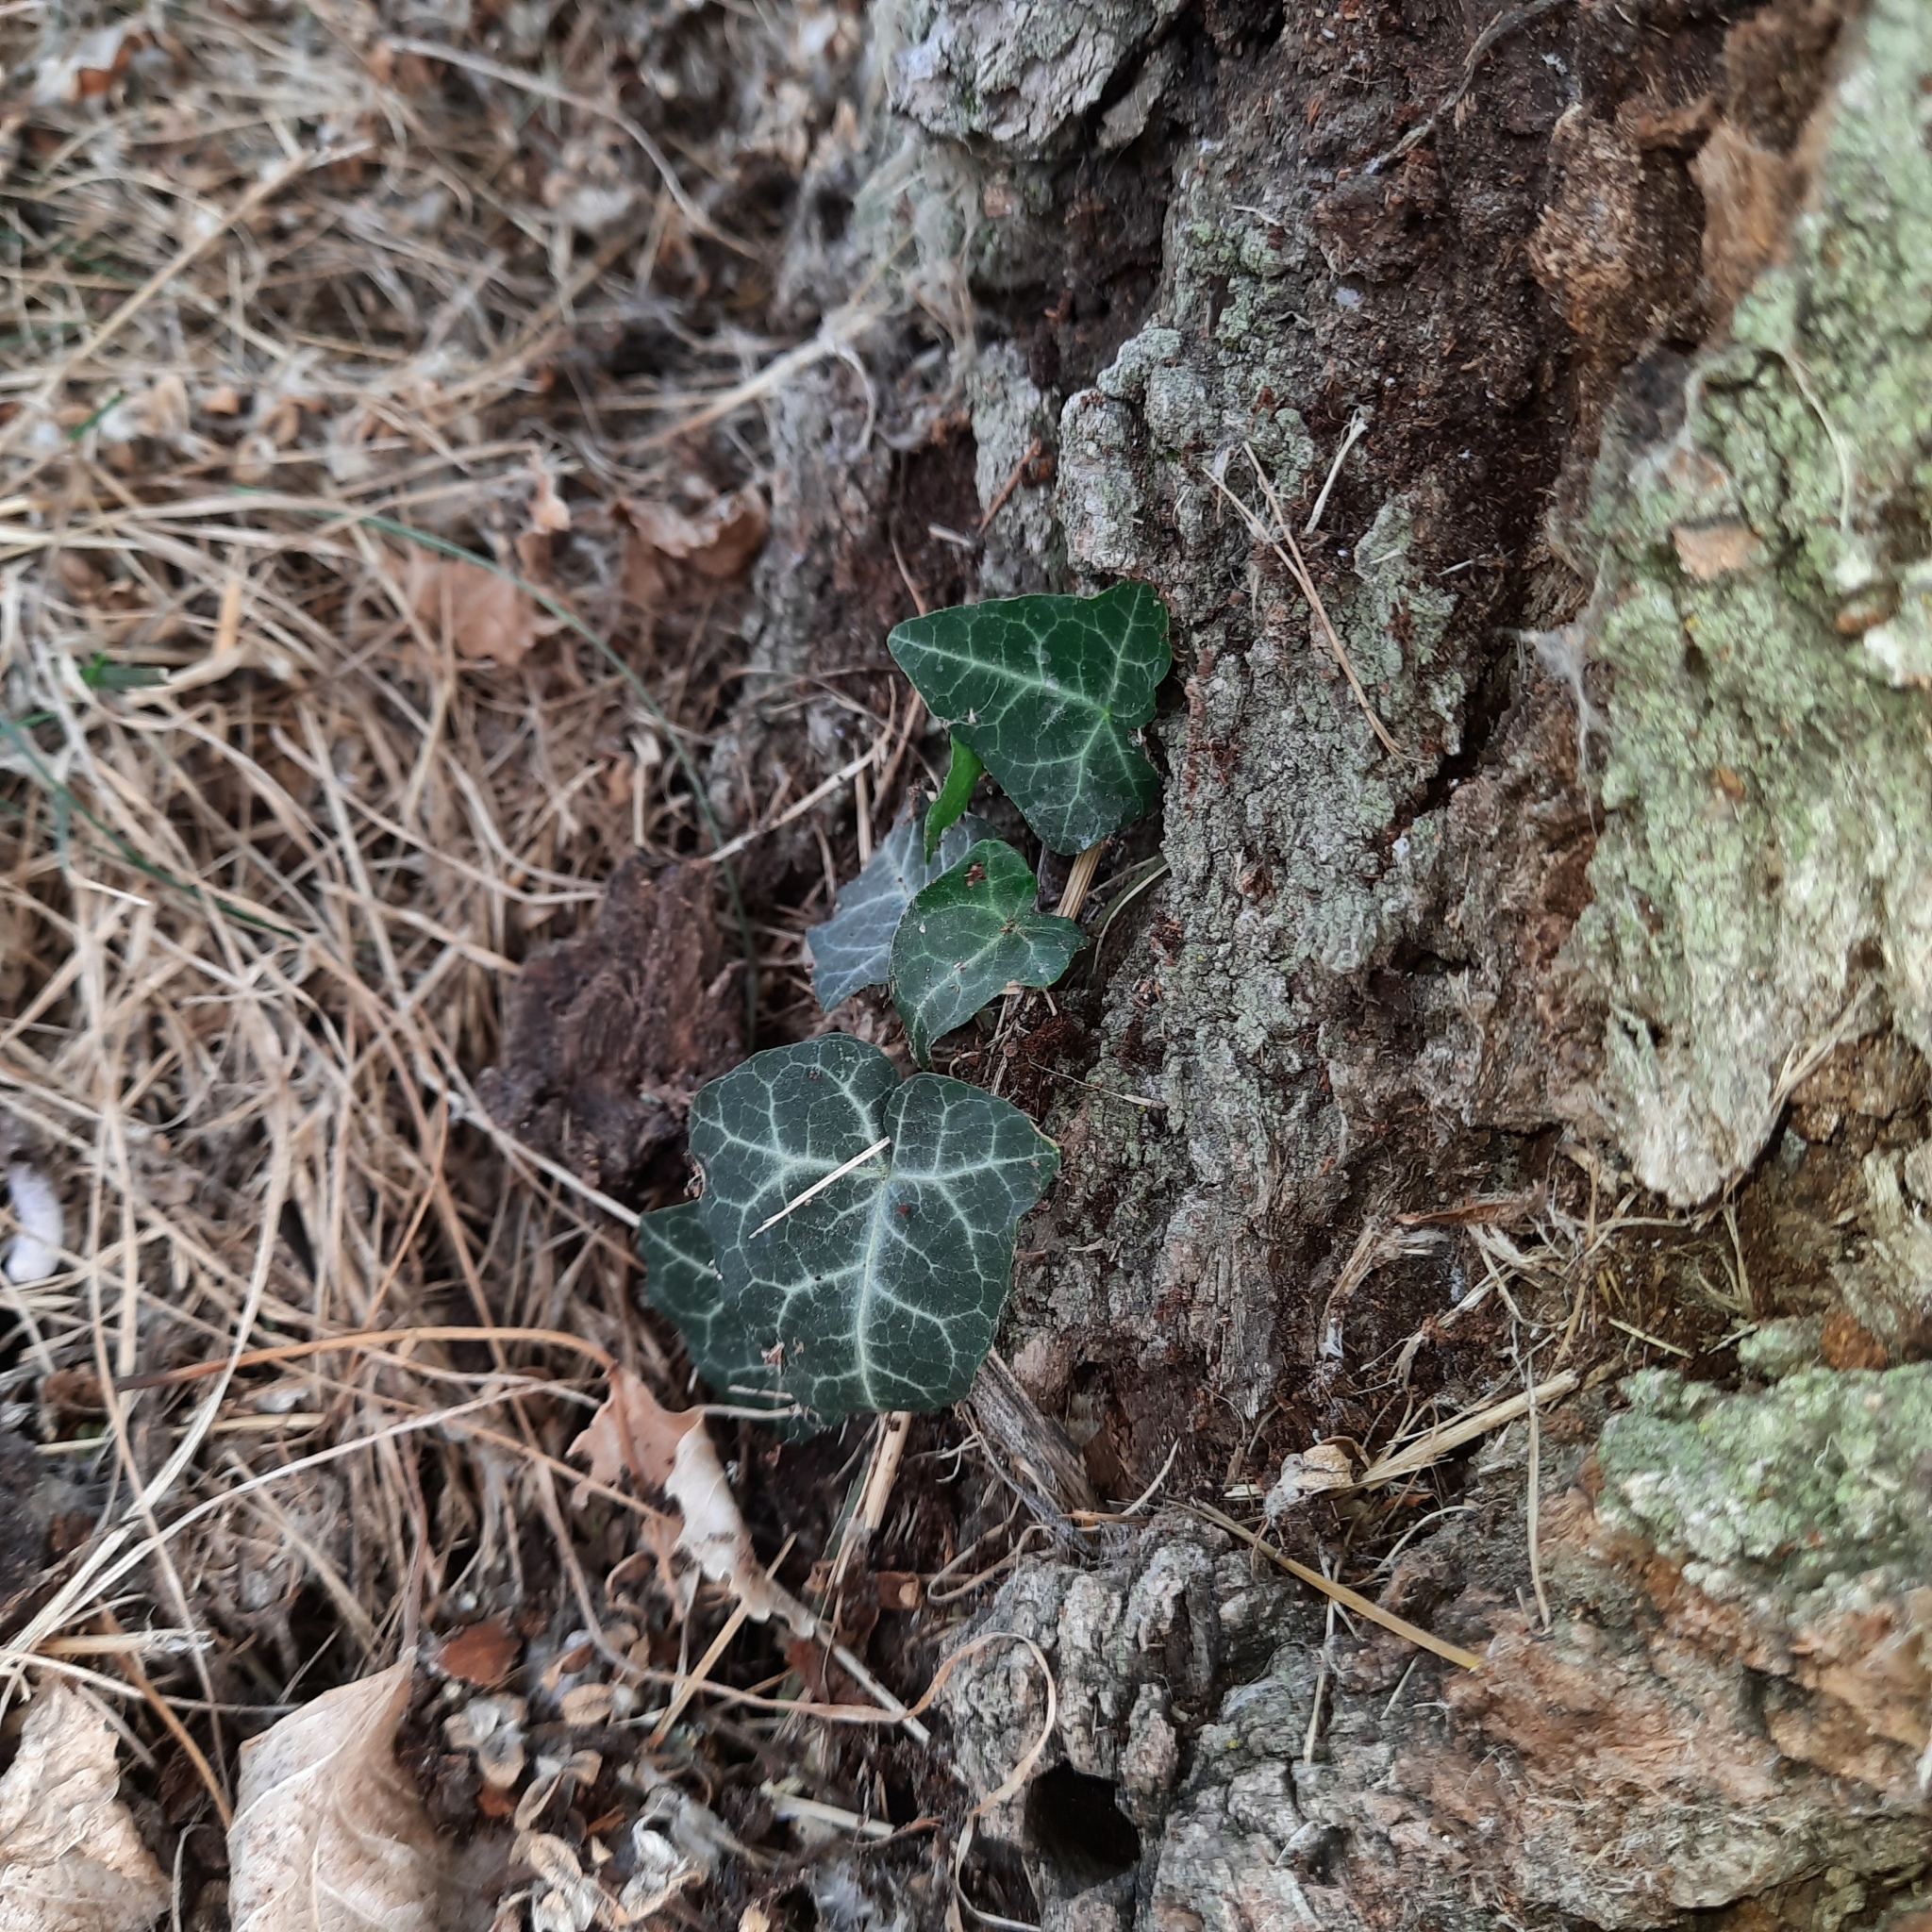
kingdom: Plantae
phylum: Tracheophyta
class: Magnoliopsida
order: Apiales
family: Araliaceae
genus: Hedera
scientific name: Hedera helix
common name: Ivy
